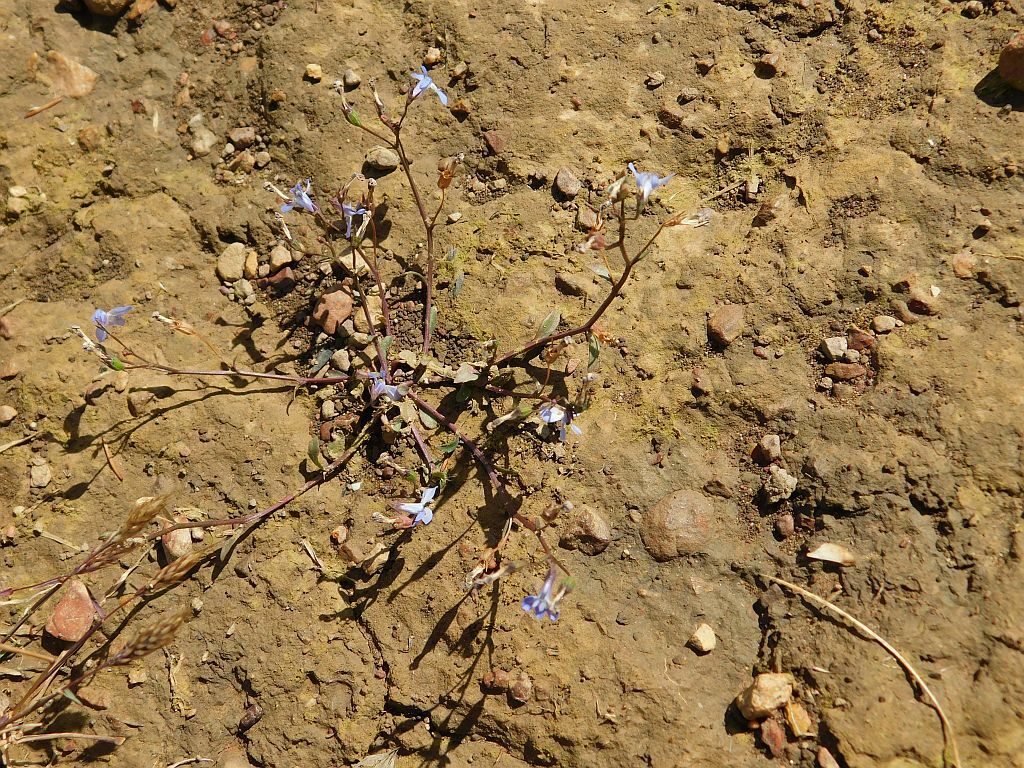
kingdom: Plantae
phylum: Tracheophyta
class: Magnoliopsida
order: Asterales
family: Campanulaceae
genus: Lobelia
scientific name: Lobelia erinus
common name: Edging lobelia
